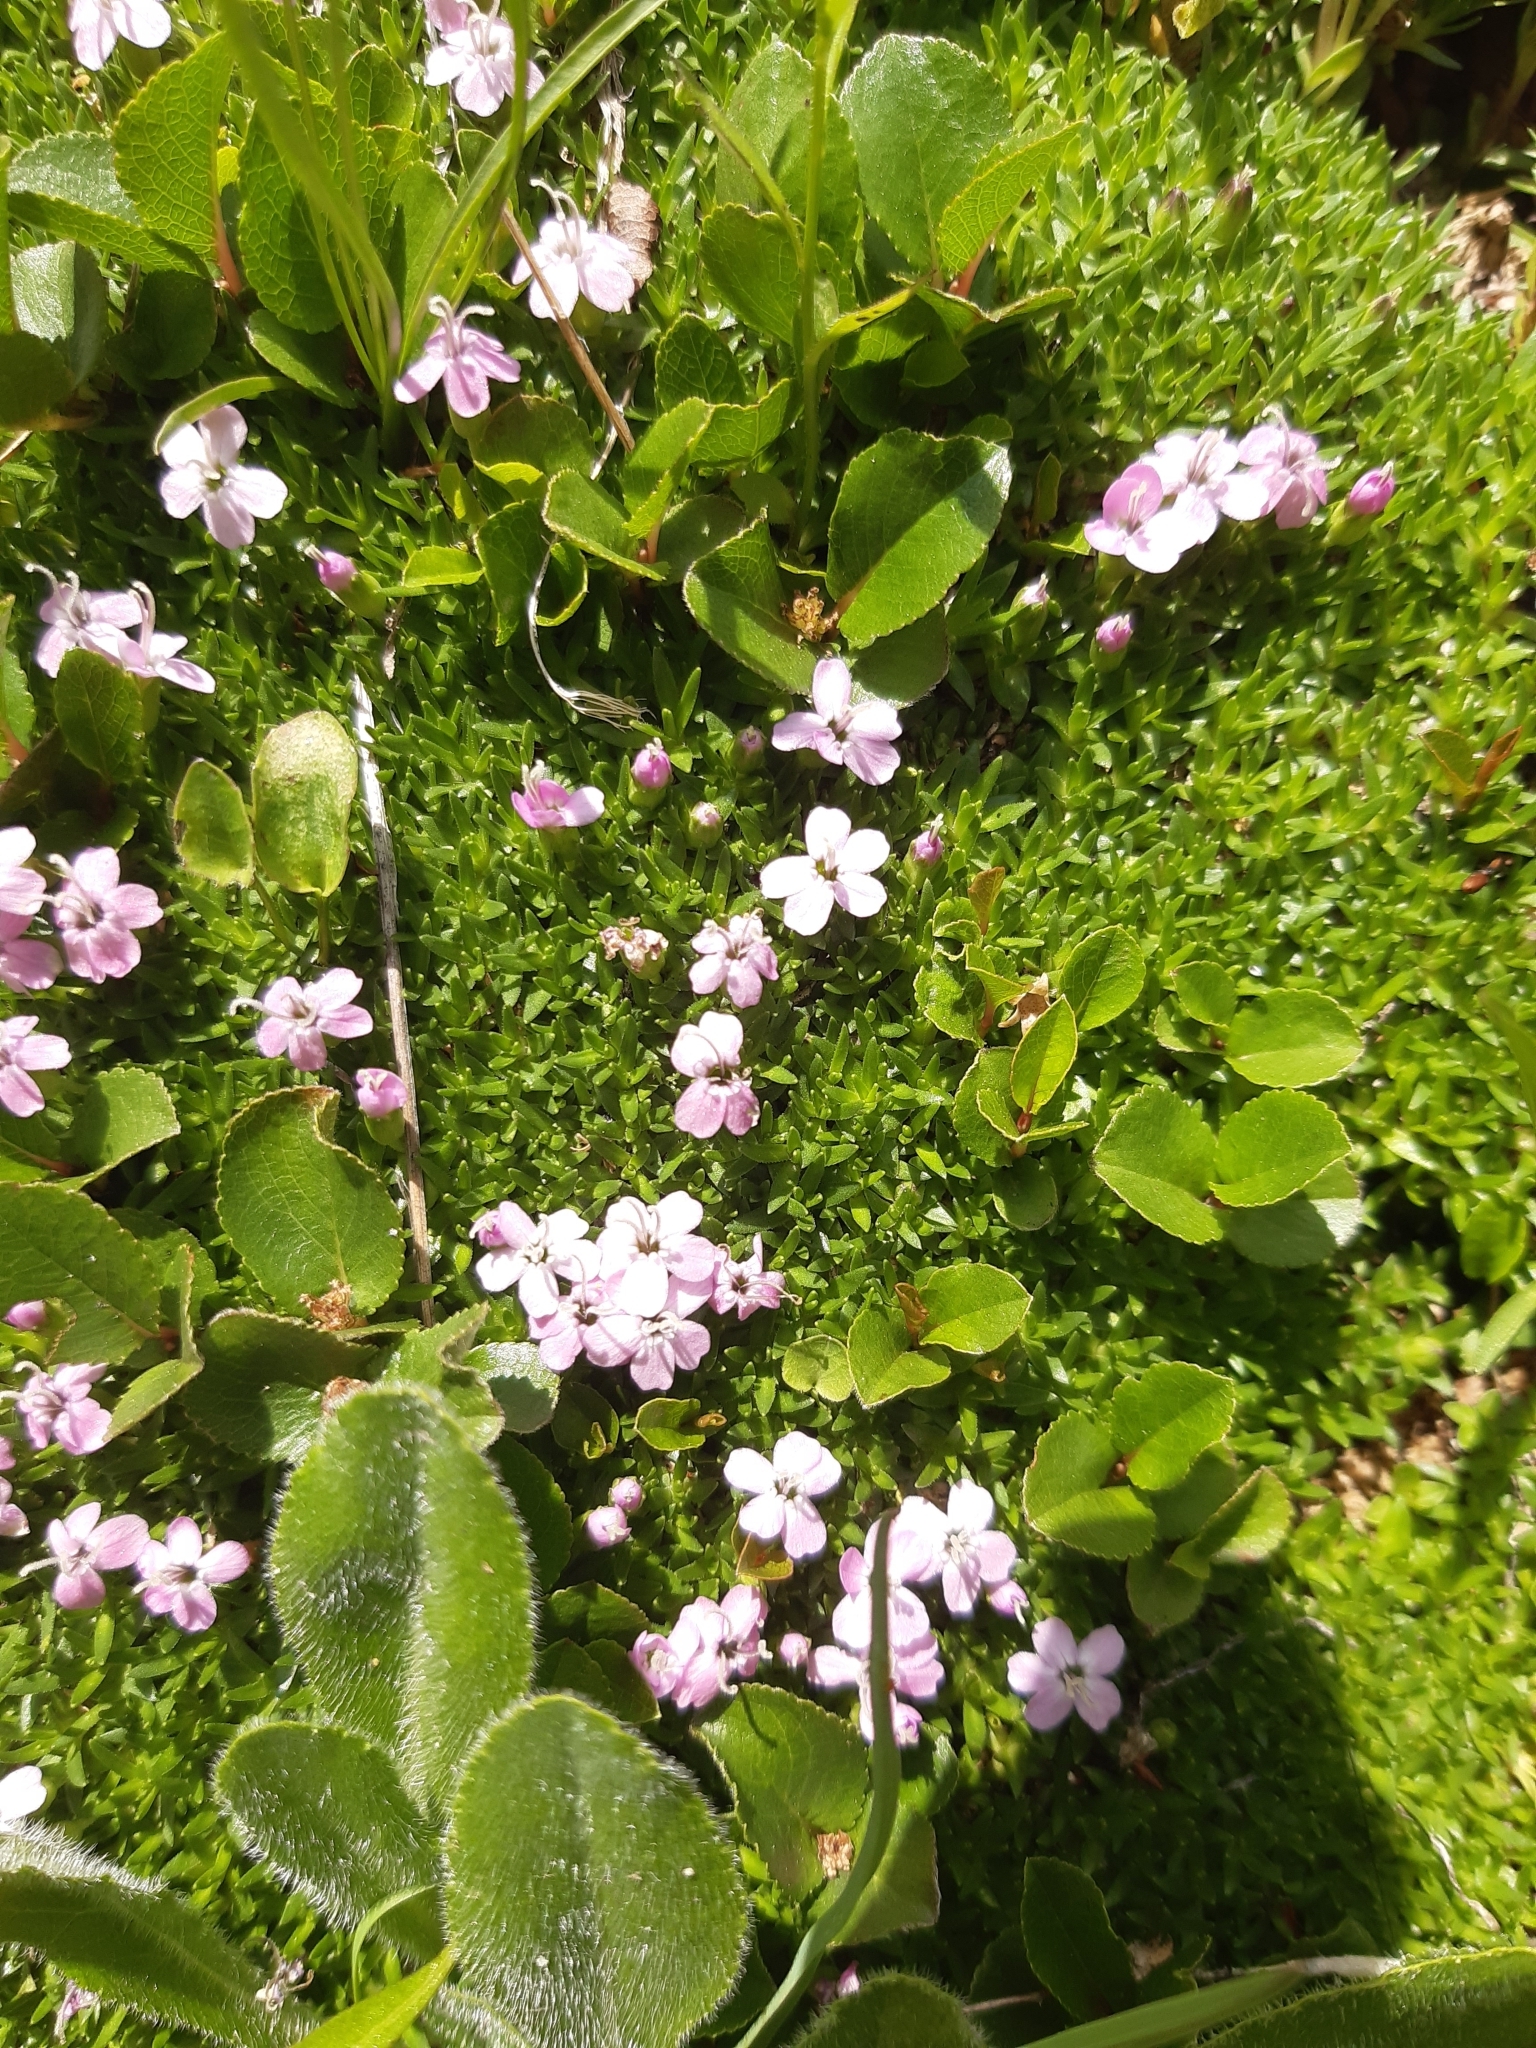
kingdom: Plantae
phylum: Tracheophyta
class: Magnoliopsida
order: Caryophyllales
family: Caryophyllaceae
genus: Silene
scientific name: Silene acaulis
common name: Moss campion
